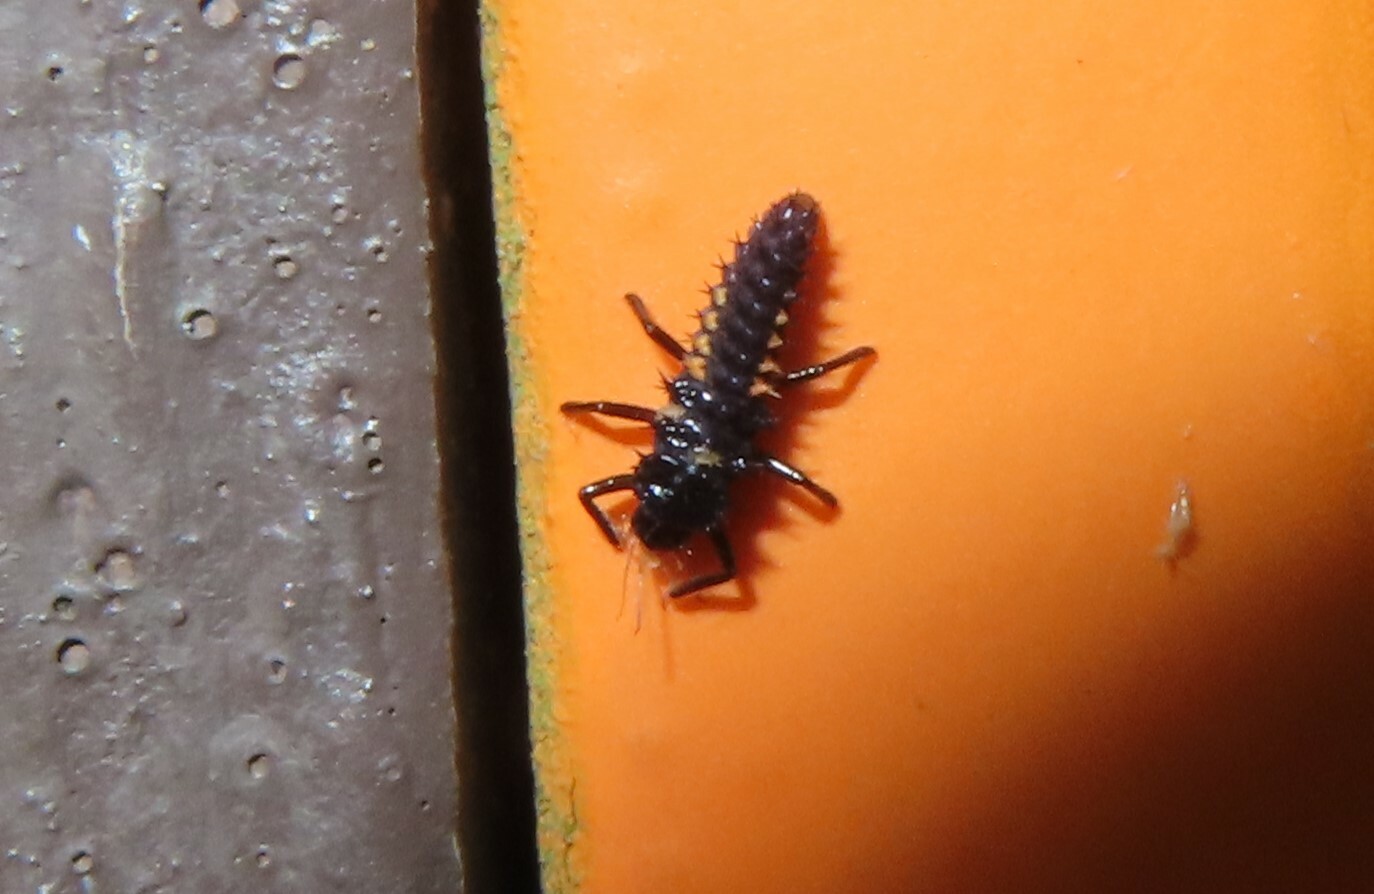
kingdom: Animalia
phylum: Arthropoda
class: Insecta
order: Coleoptera
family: Coccinellidae
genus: Harmonia
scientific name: Harmonia axyridis
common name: Harlequin ladybird
